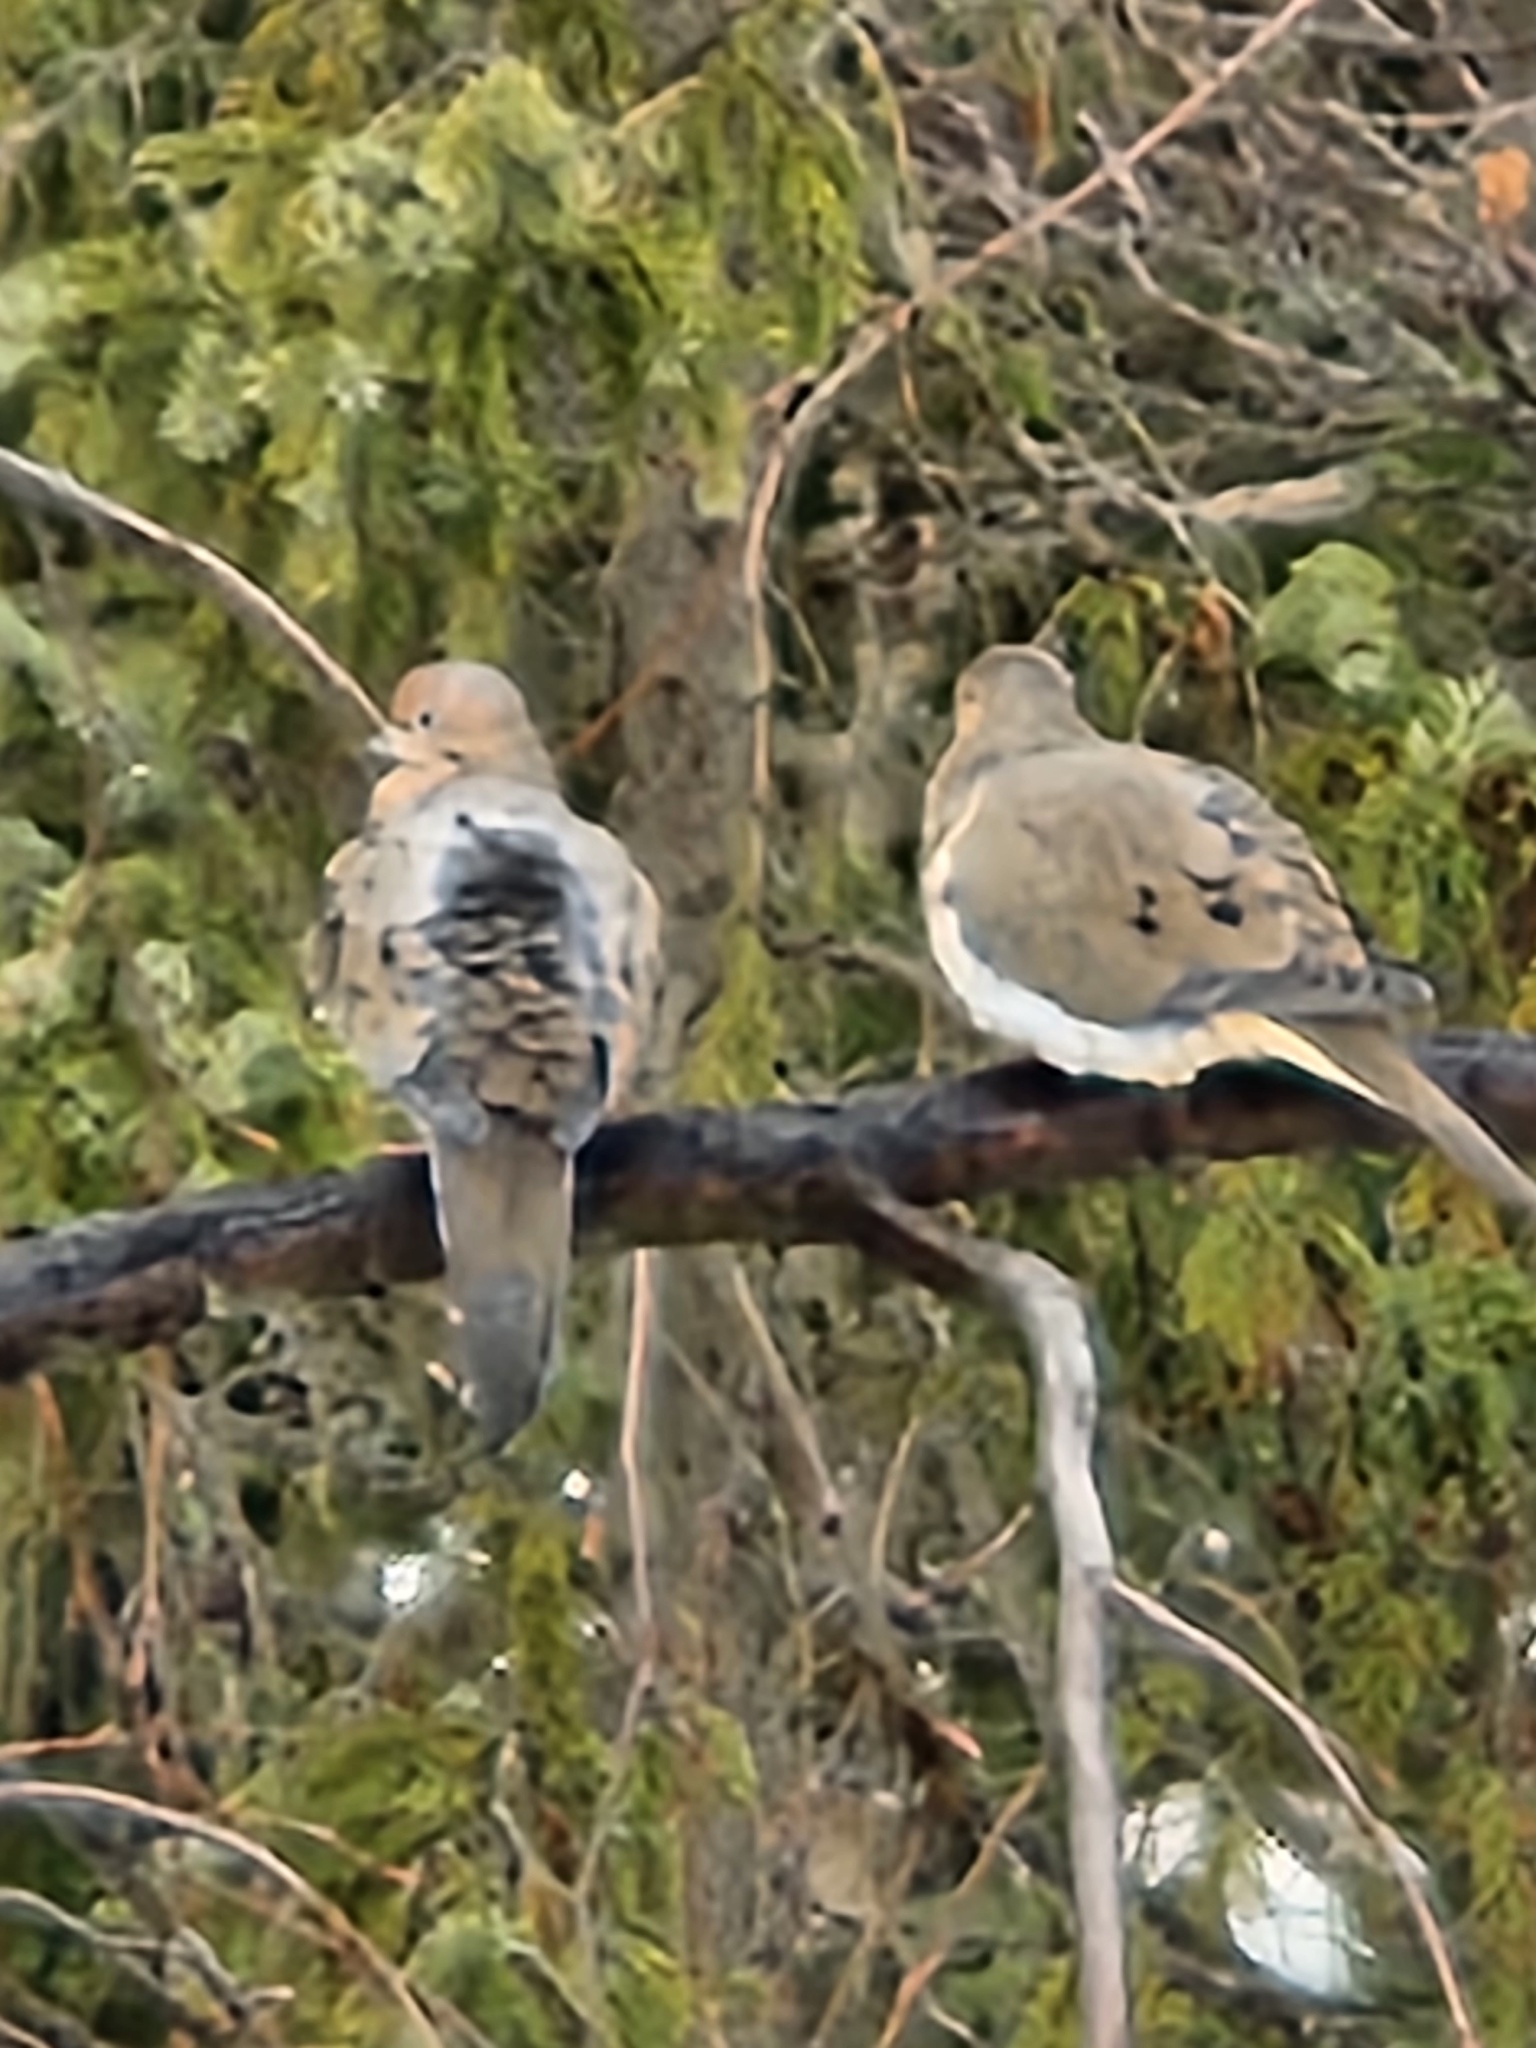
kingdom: Animalia
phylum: Chordata
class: Aves
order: Columbiformes
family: Columbidae
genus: Zenaida
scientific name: Zenaida macroura
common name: Mourning dove
